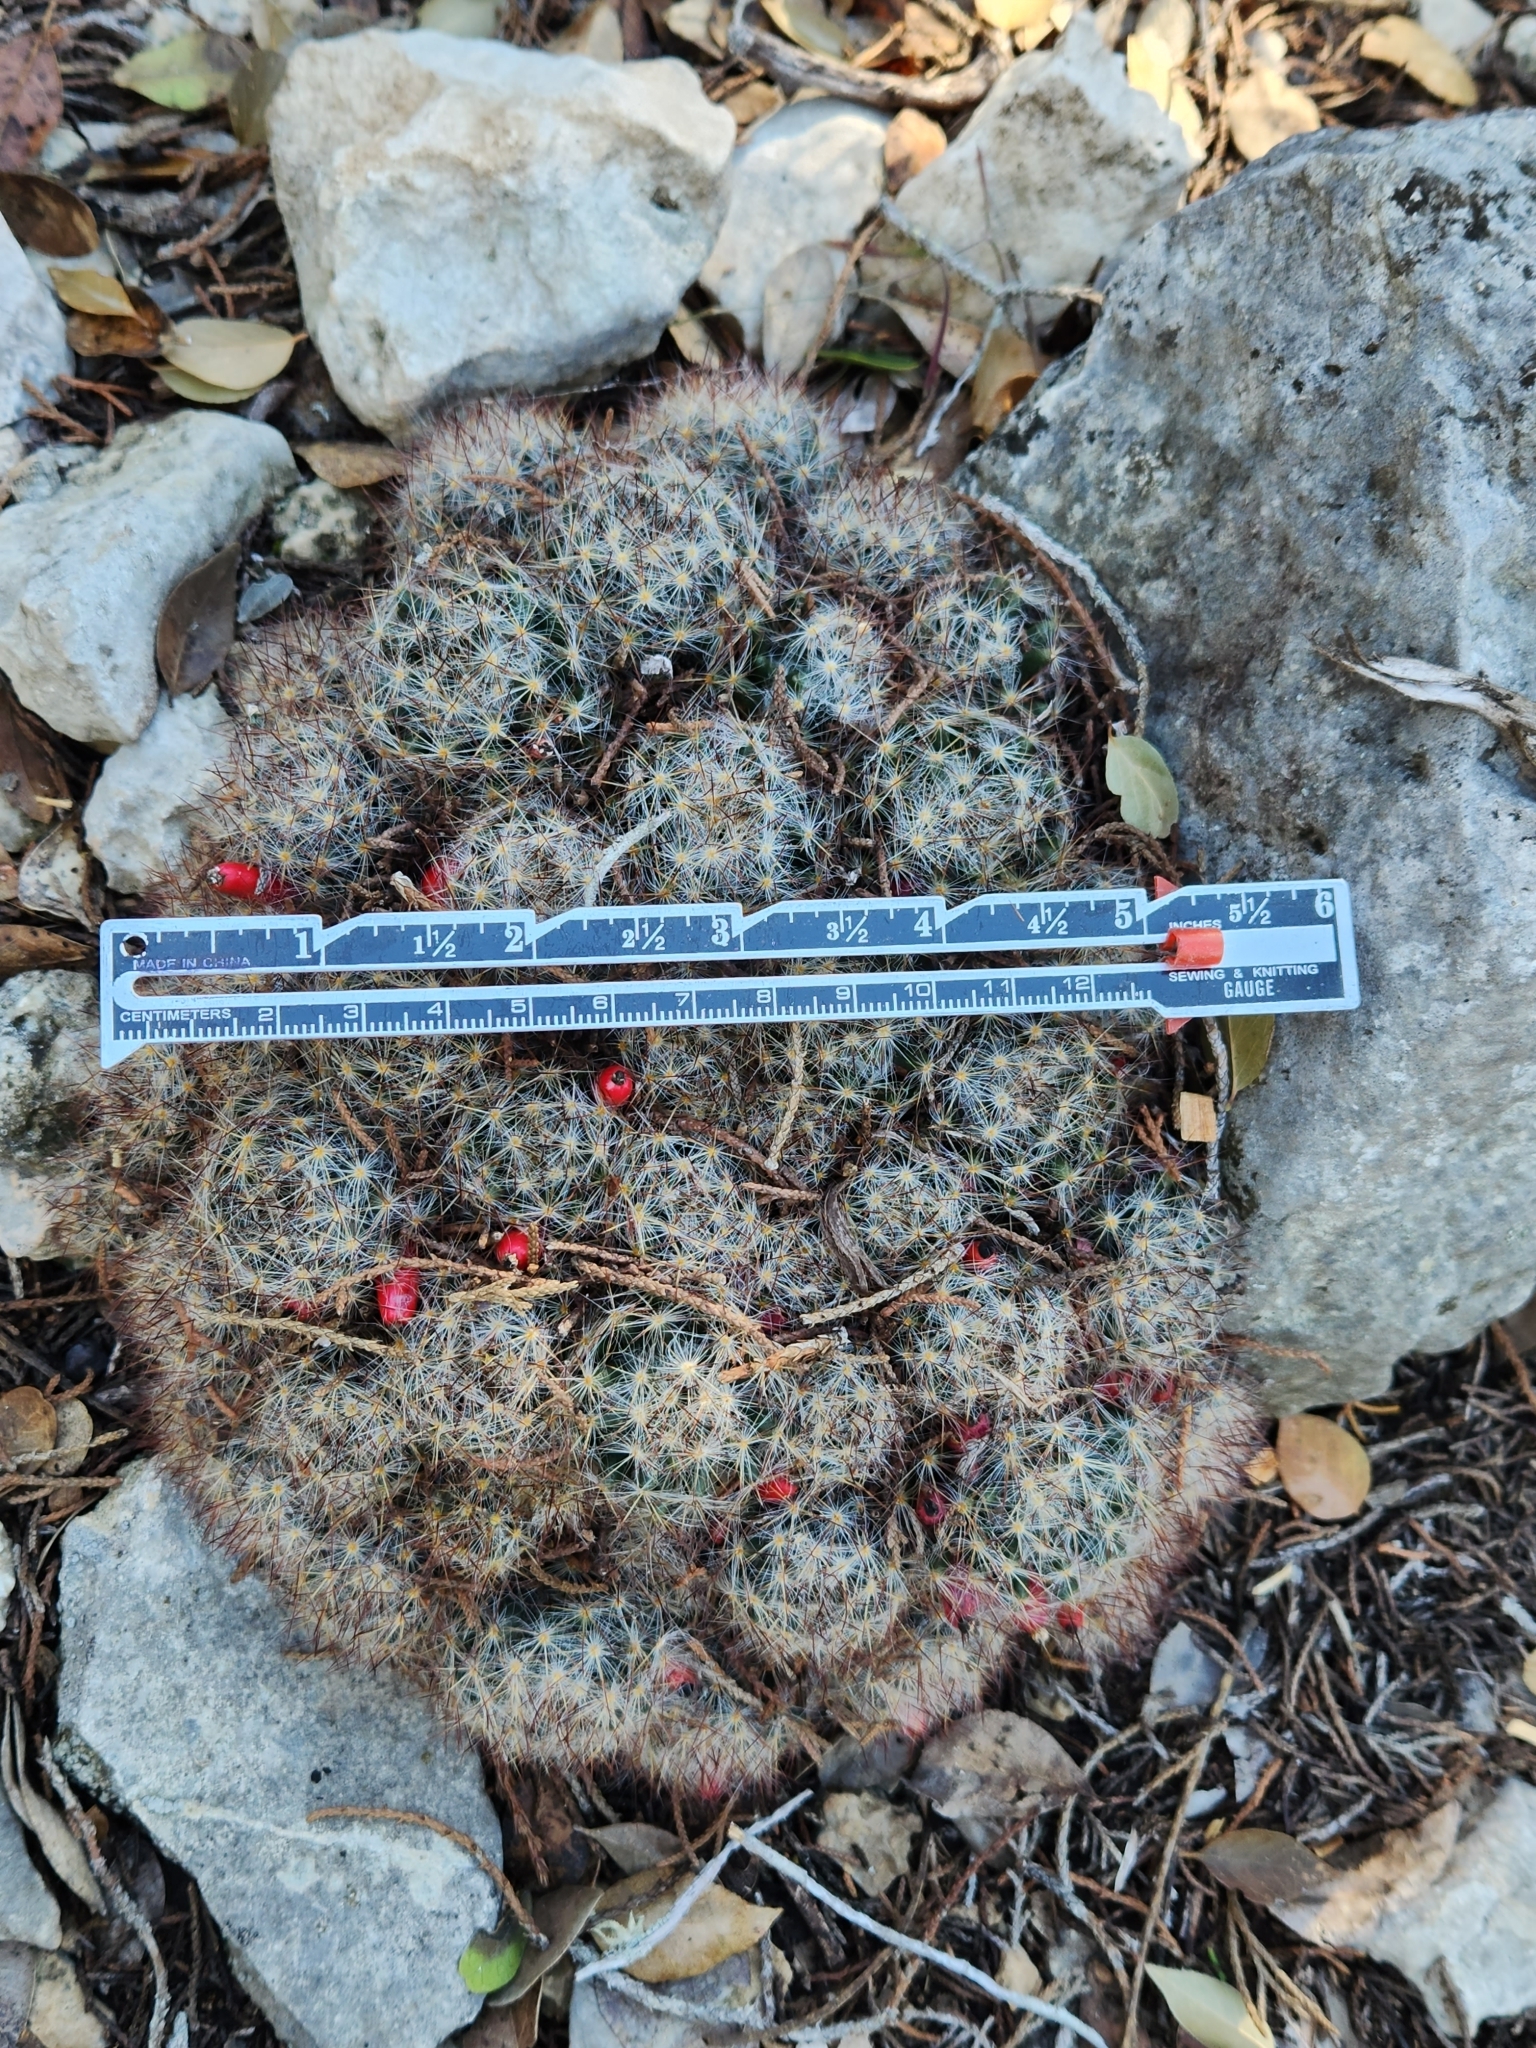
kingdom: Plantae
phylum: Tracheophyta
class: Magnoliopsida
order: Caryophyllales
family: Cactaceae
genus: Mammillaria
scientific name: Mammillaria prolifera
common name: Texas nipple cactus
